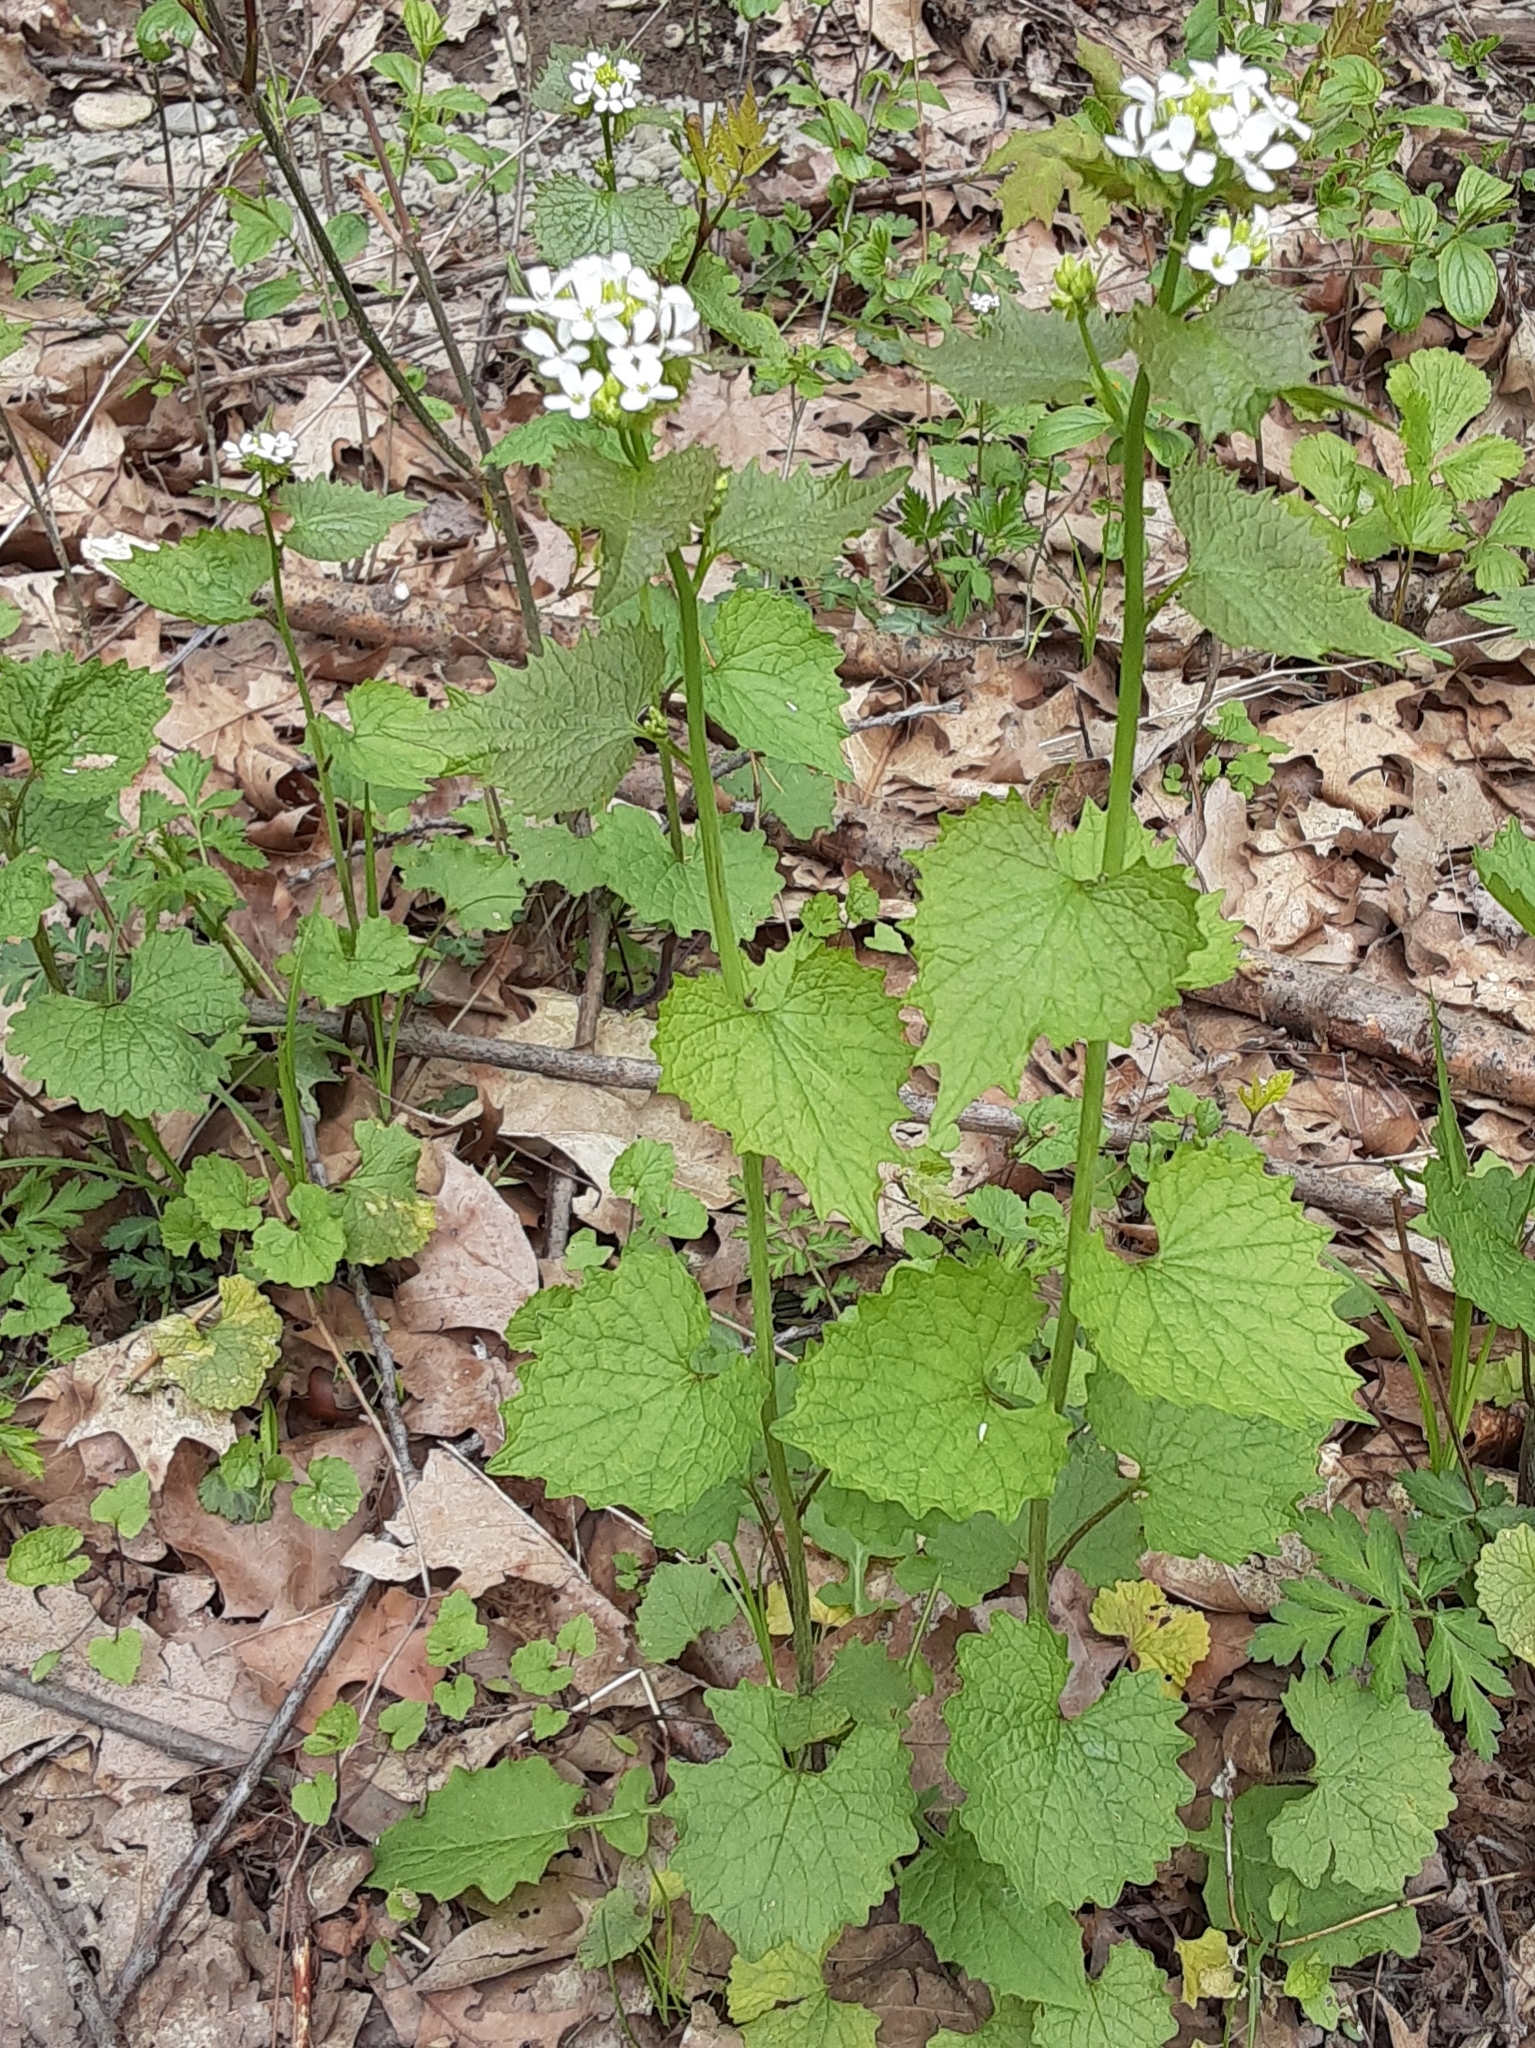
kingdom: Plantae
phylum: Tracheophyta
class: Magnoliopsida
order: Brassicales
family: Brassicaceae
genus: Alliaria
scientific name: Alliaria petiolata
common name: Garlic mustard
